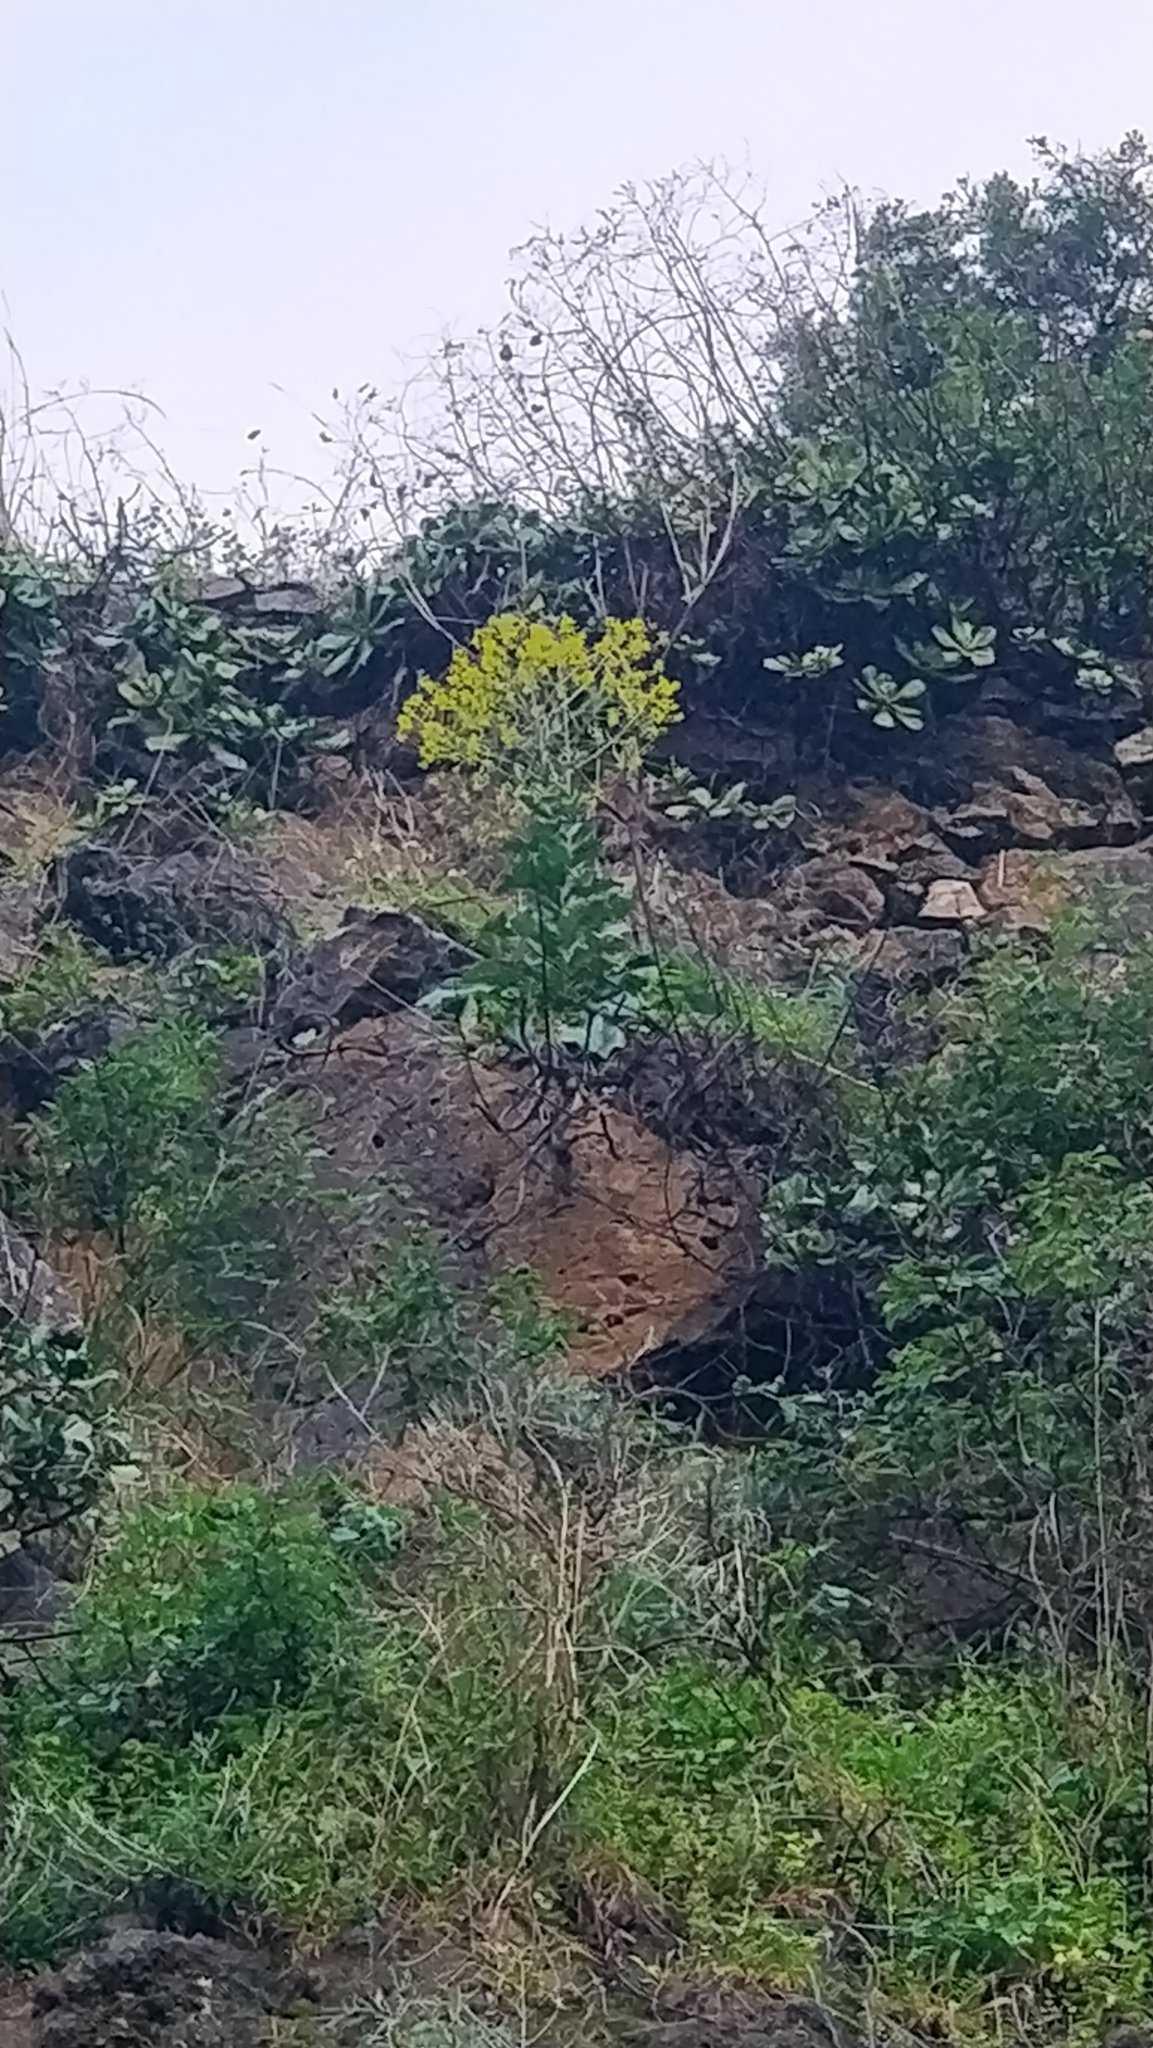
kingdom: Plantae
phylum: Tracheophyta
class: Magnoliopsida
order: Brassicales
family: Brassicaceae
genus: Isatis
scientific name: Isatis tinctoria
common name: Woad
